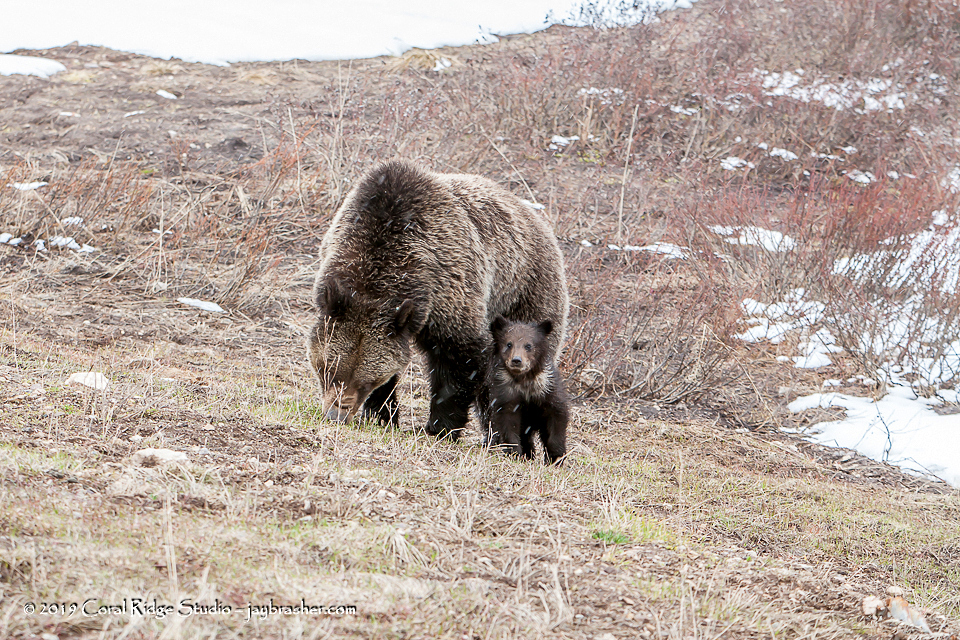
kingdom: Animalia
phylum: Chordata
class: Mammalia
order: Carnivora
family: Ursidae
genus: Ursus
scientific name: Ursus arctos
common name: Brown bear
